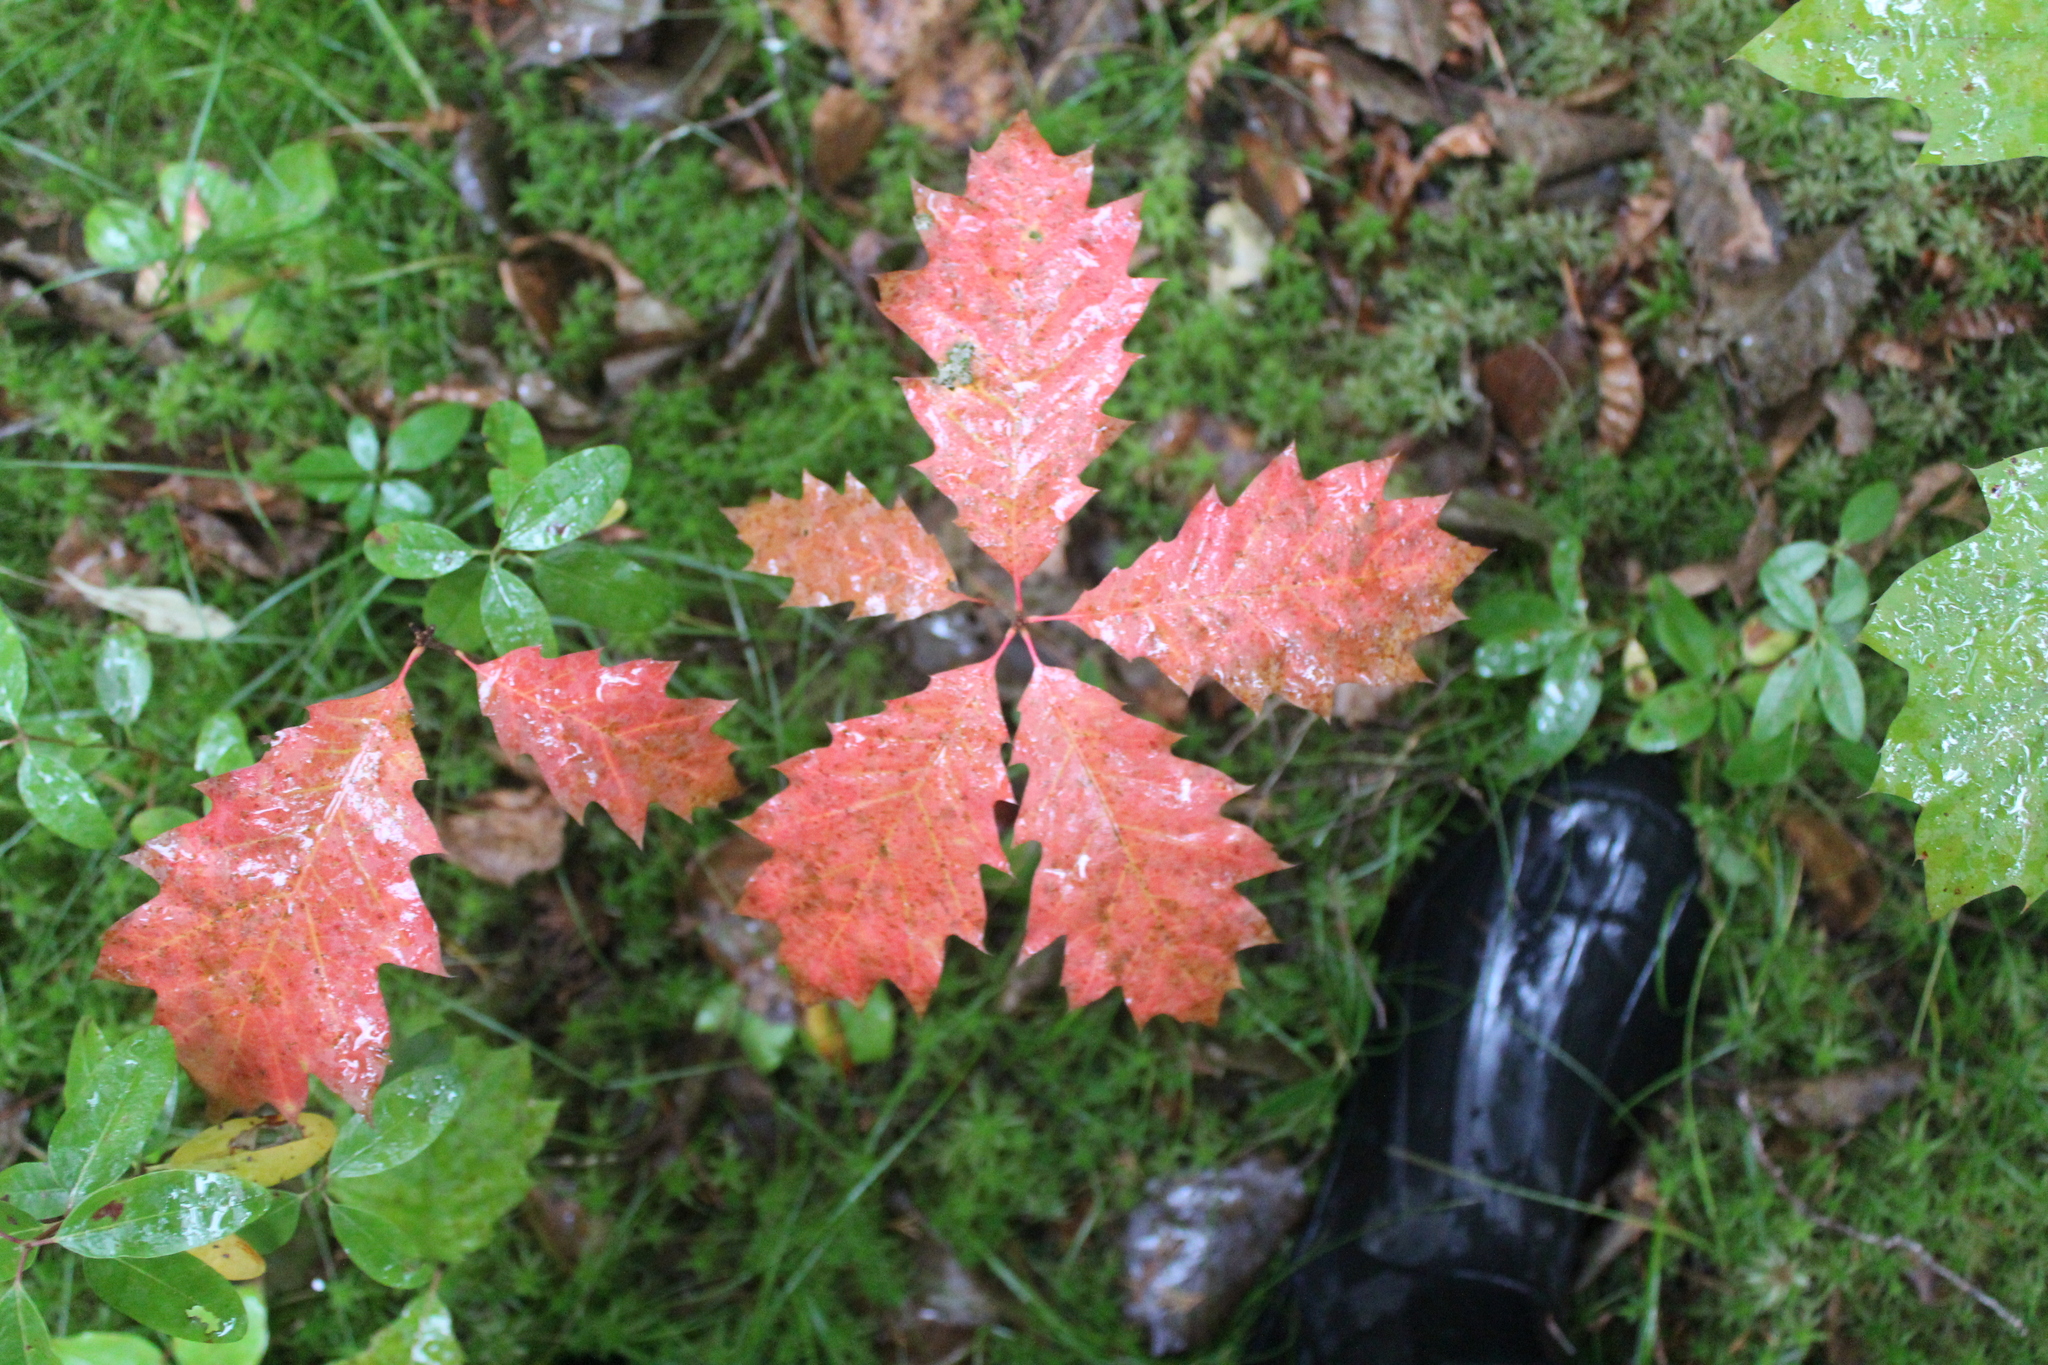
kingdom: Plantae
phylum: Tracheophyta
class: Magnoliopsida
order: Fagales
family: Fagaceae
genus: Quercus
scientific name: Quercus rubra
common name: Red oak
